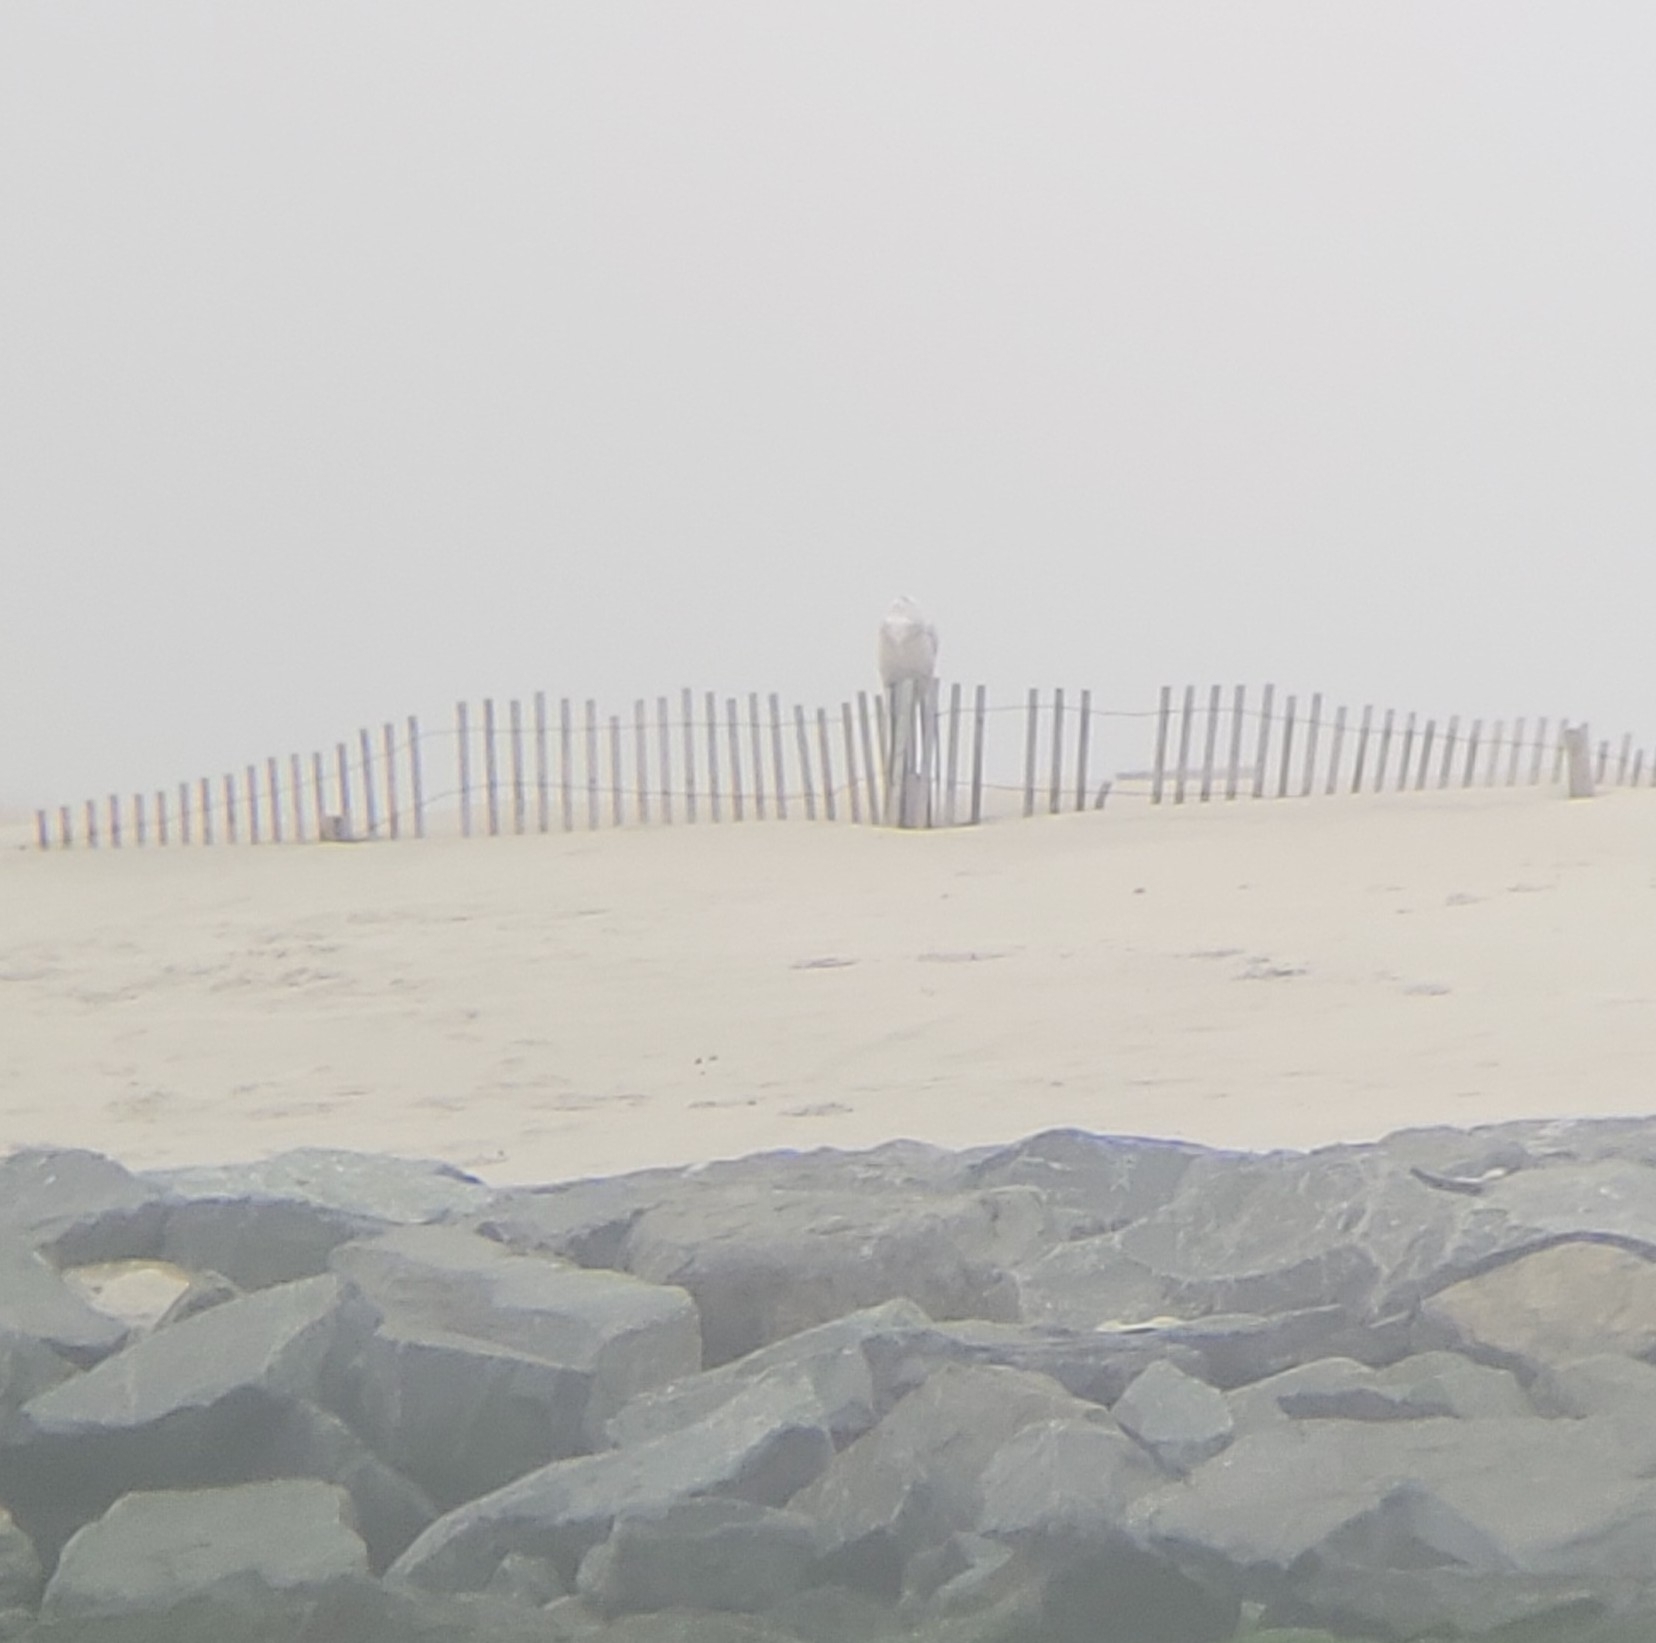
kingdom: Animalia
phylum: Chordata
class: Aves
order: Strigiformes
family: Strigidae
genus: Bubo
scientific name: Bubo scandiacus
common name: Snowy owl
